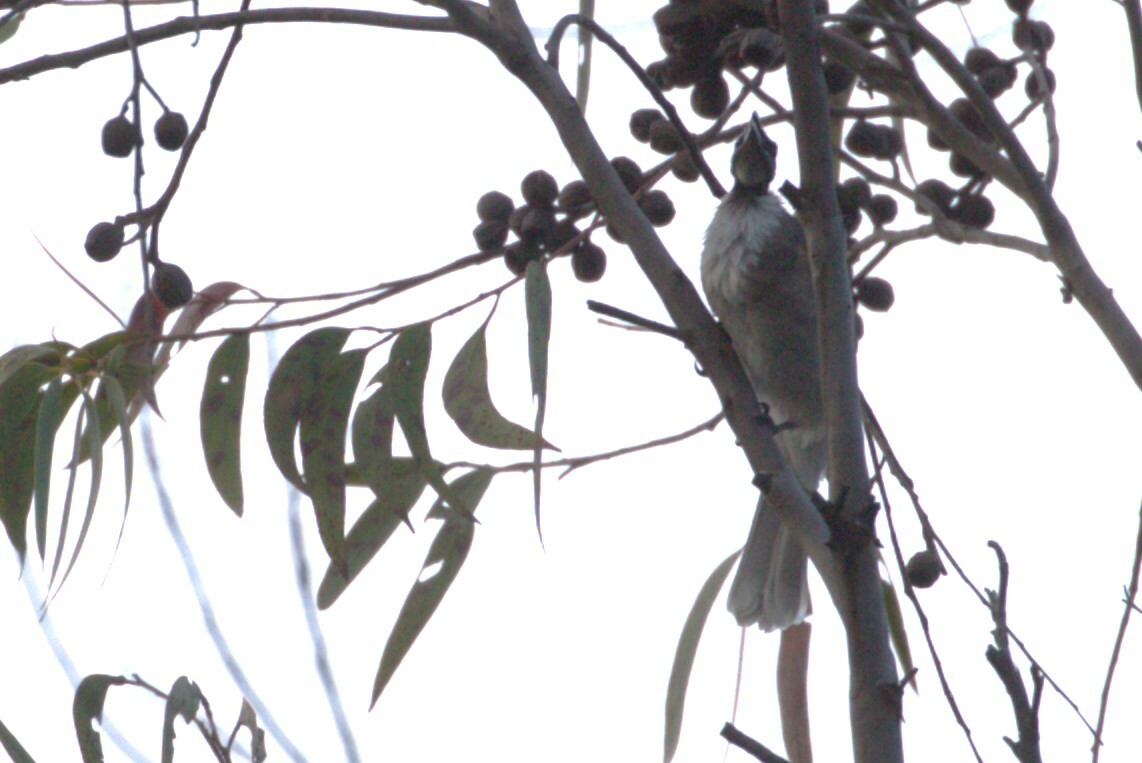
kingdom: Animalia
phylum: Chordata
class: Aves
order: Passeriformes
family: Meliphagidae
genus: Philemon
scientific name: Philemon corniculatus
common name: Noisy friarbird
